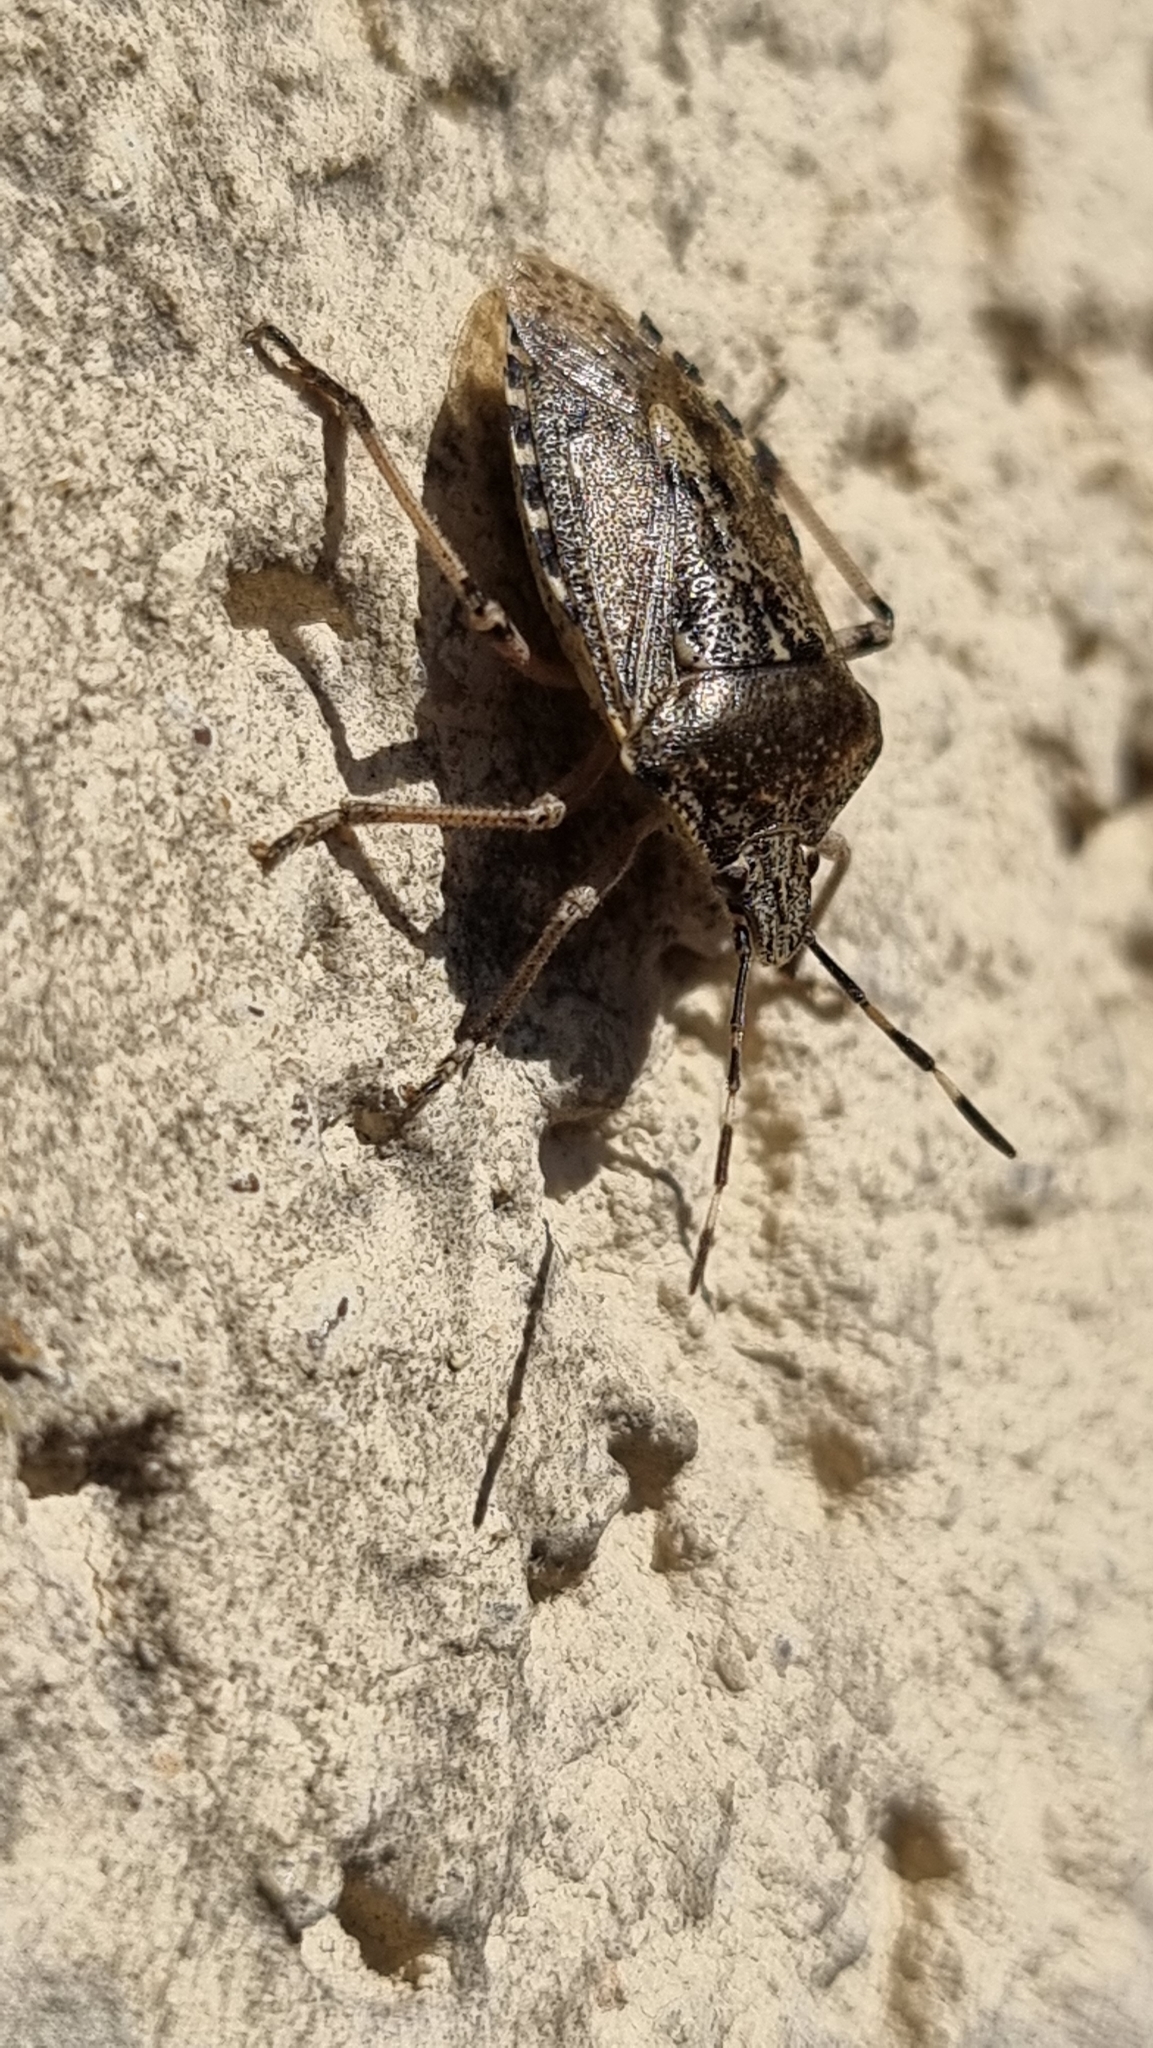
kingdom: Animalia
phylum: Arthropoda
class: Insecta
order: Hemiptera
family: Pentatomidae
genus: Rhaphigaster
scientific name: Rhaphigaster nebulosa
